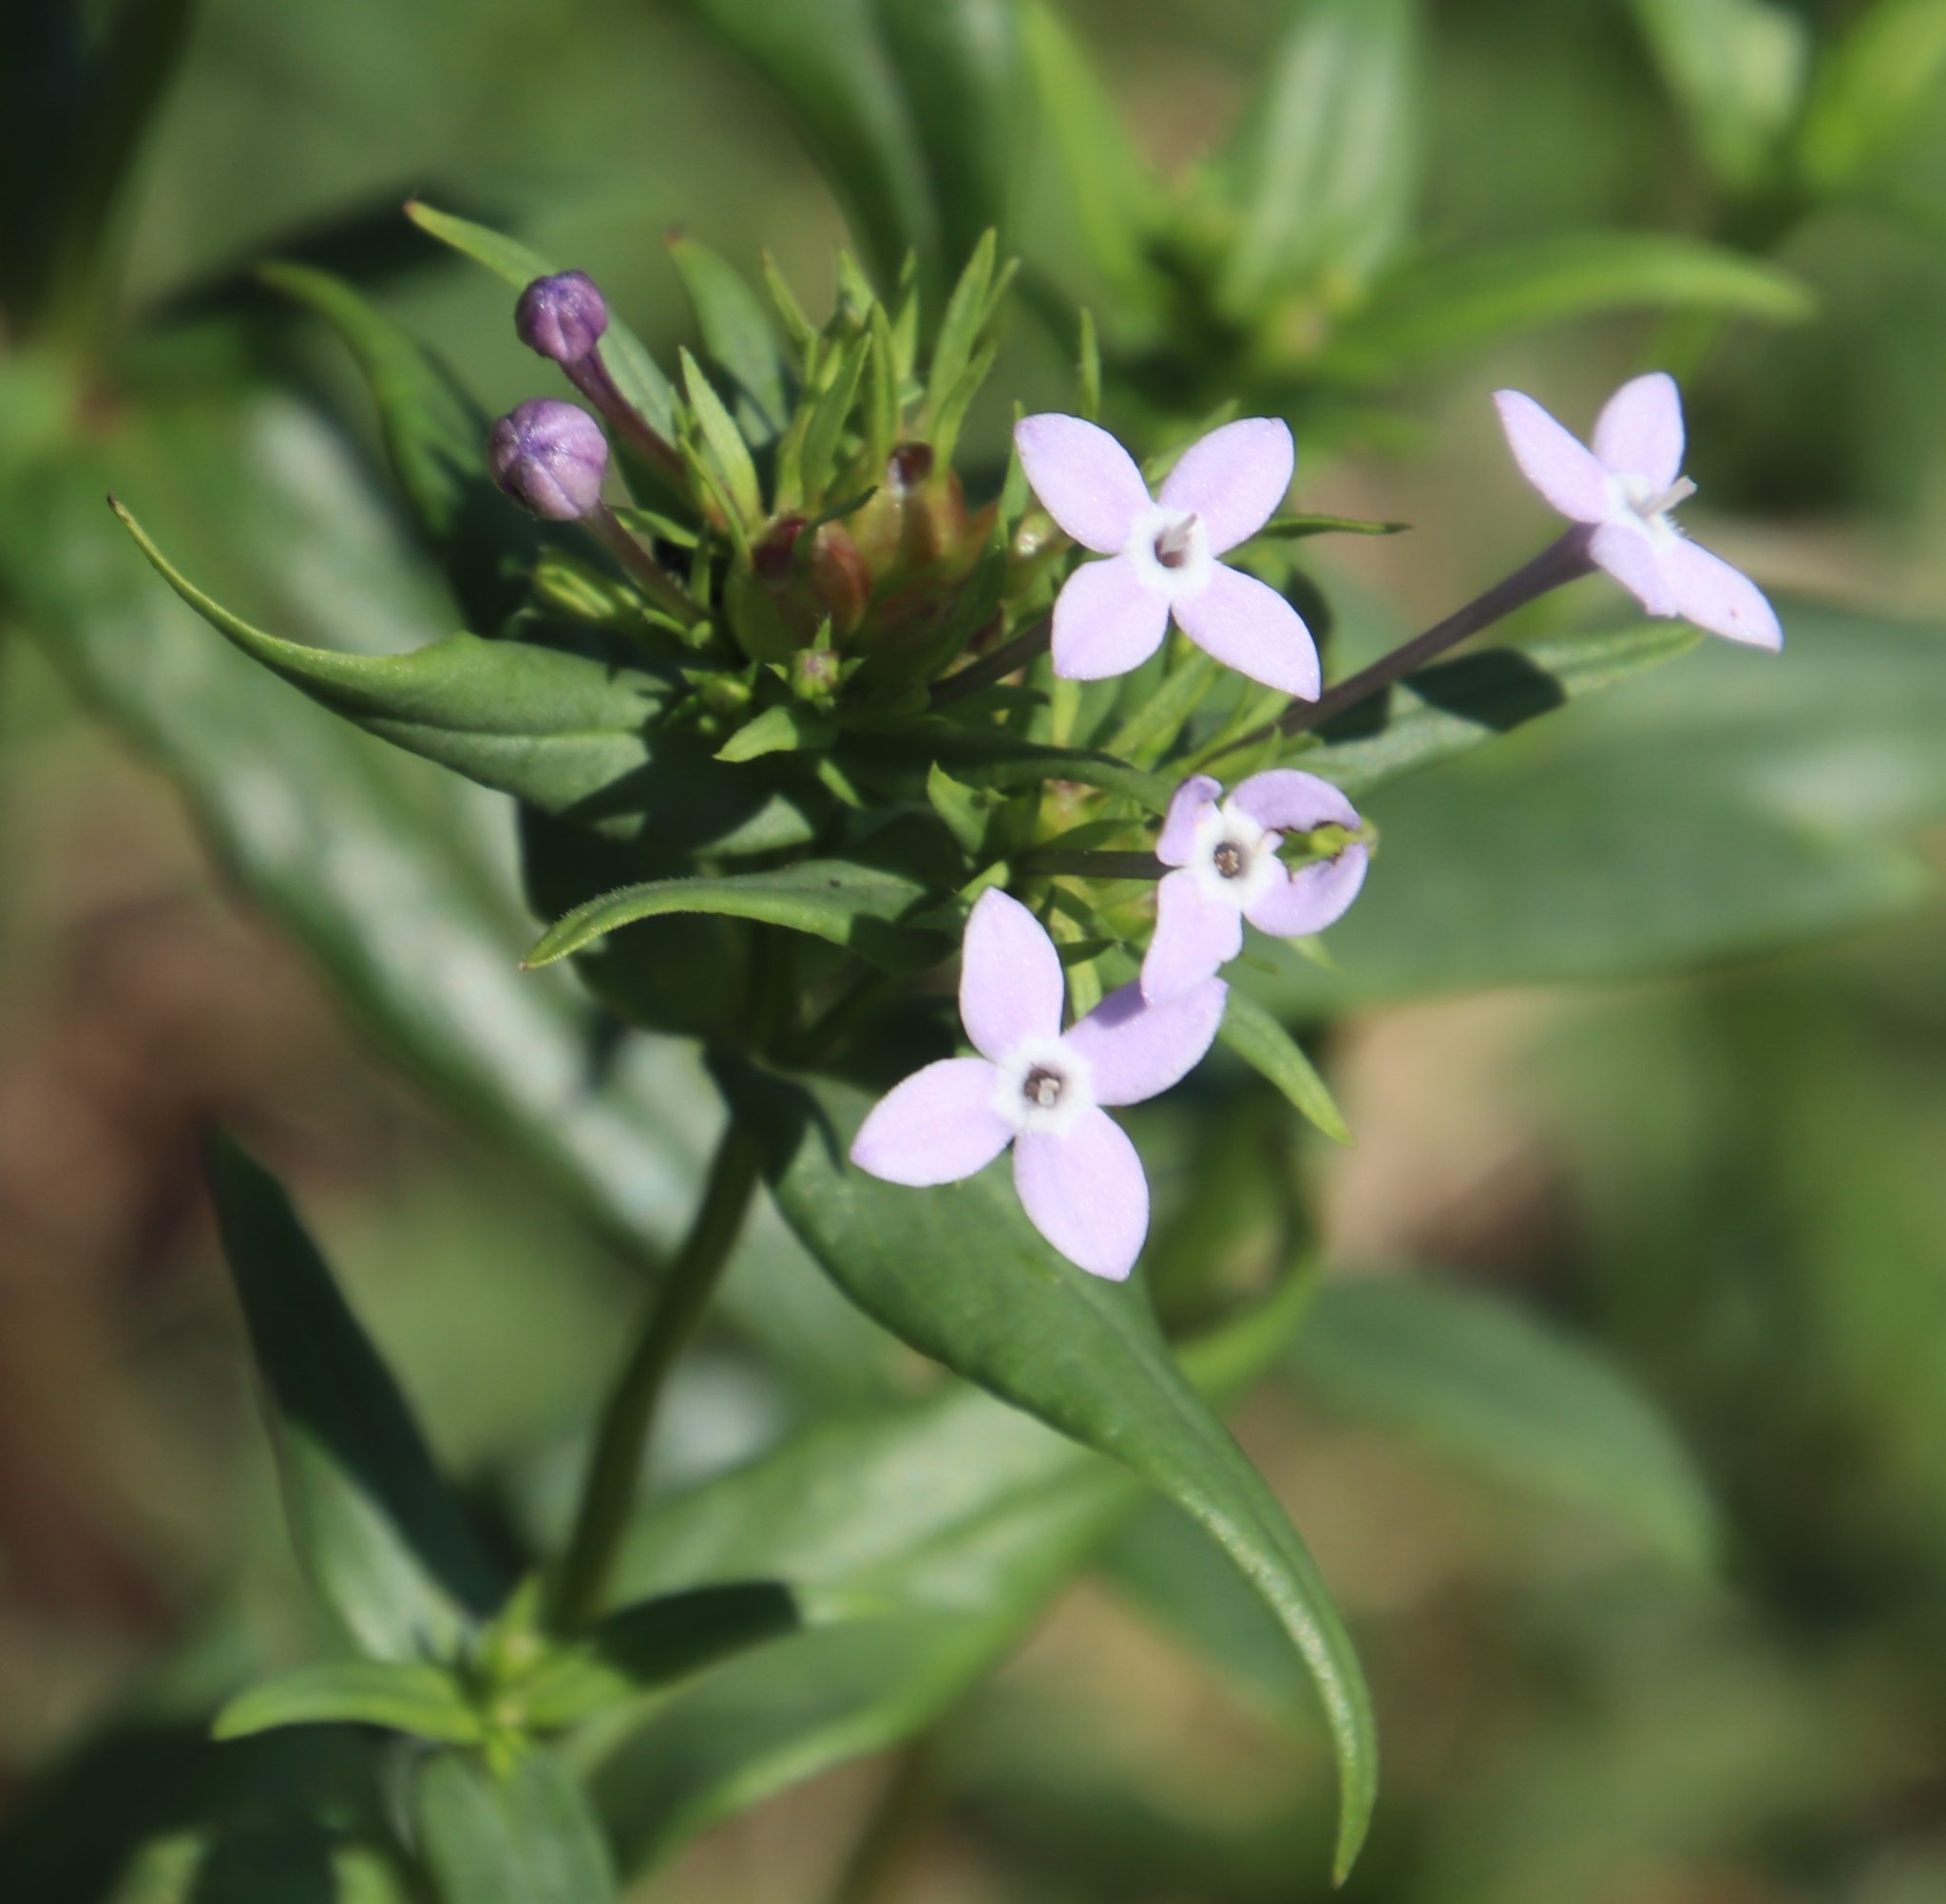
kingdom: Plantae
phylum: Tracheophyta
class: Magnoliopsida
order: Gentianales
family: Rubiaceae
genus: Conostomium
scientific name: Conostomium natalense
